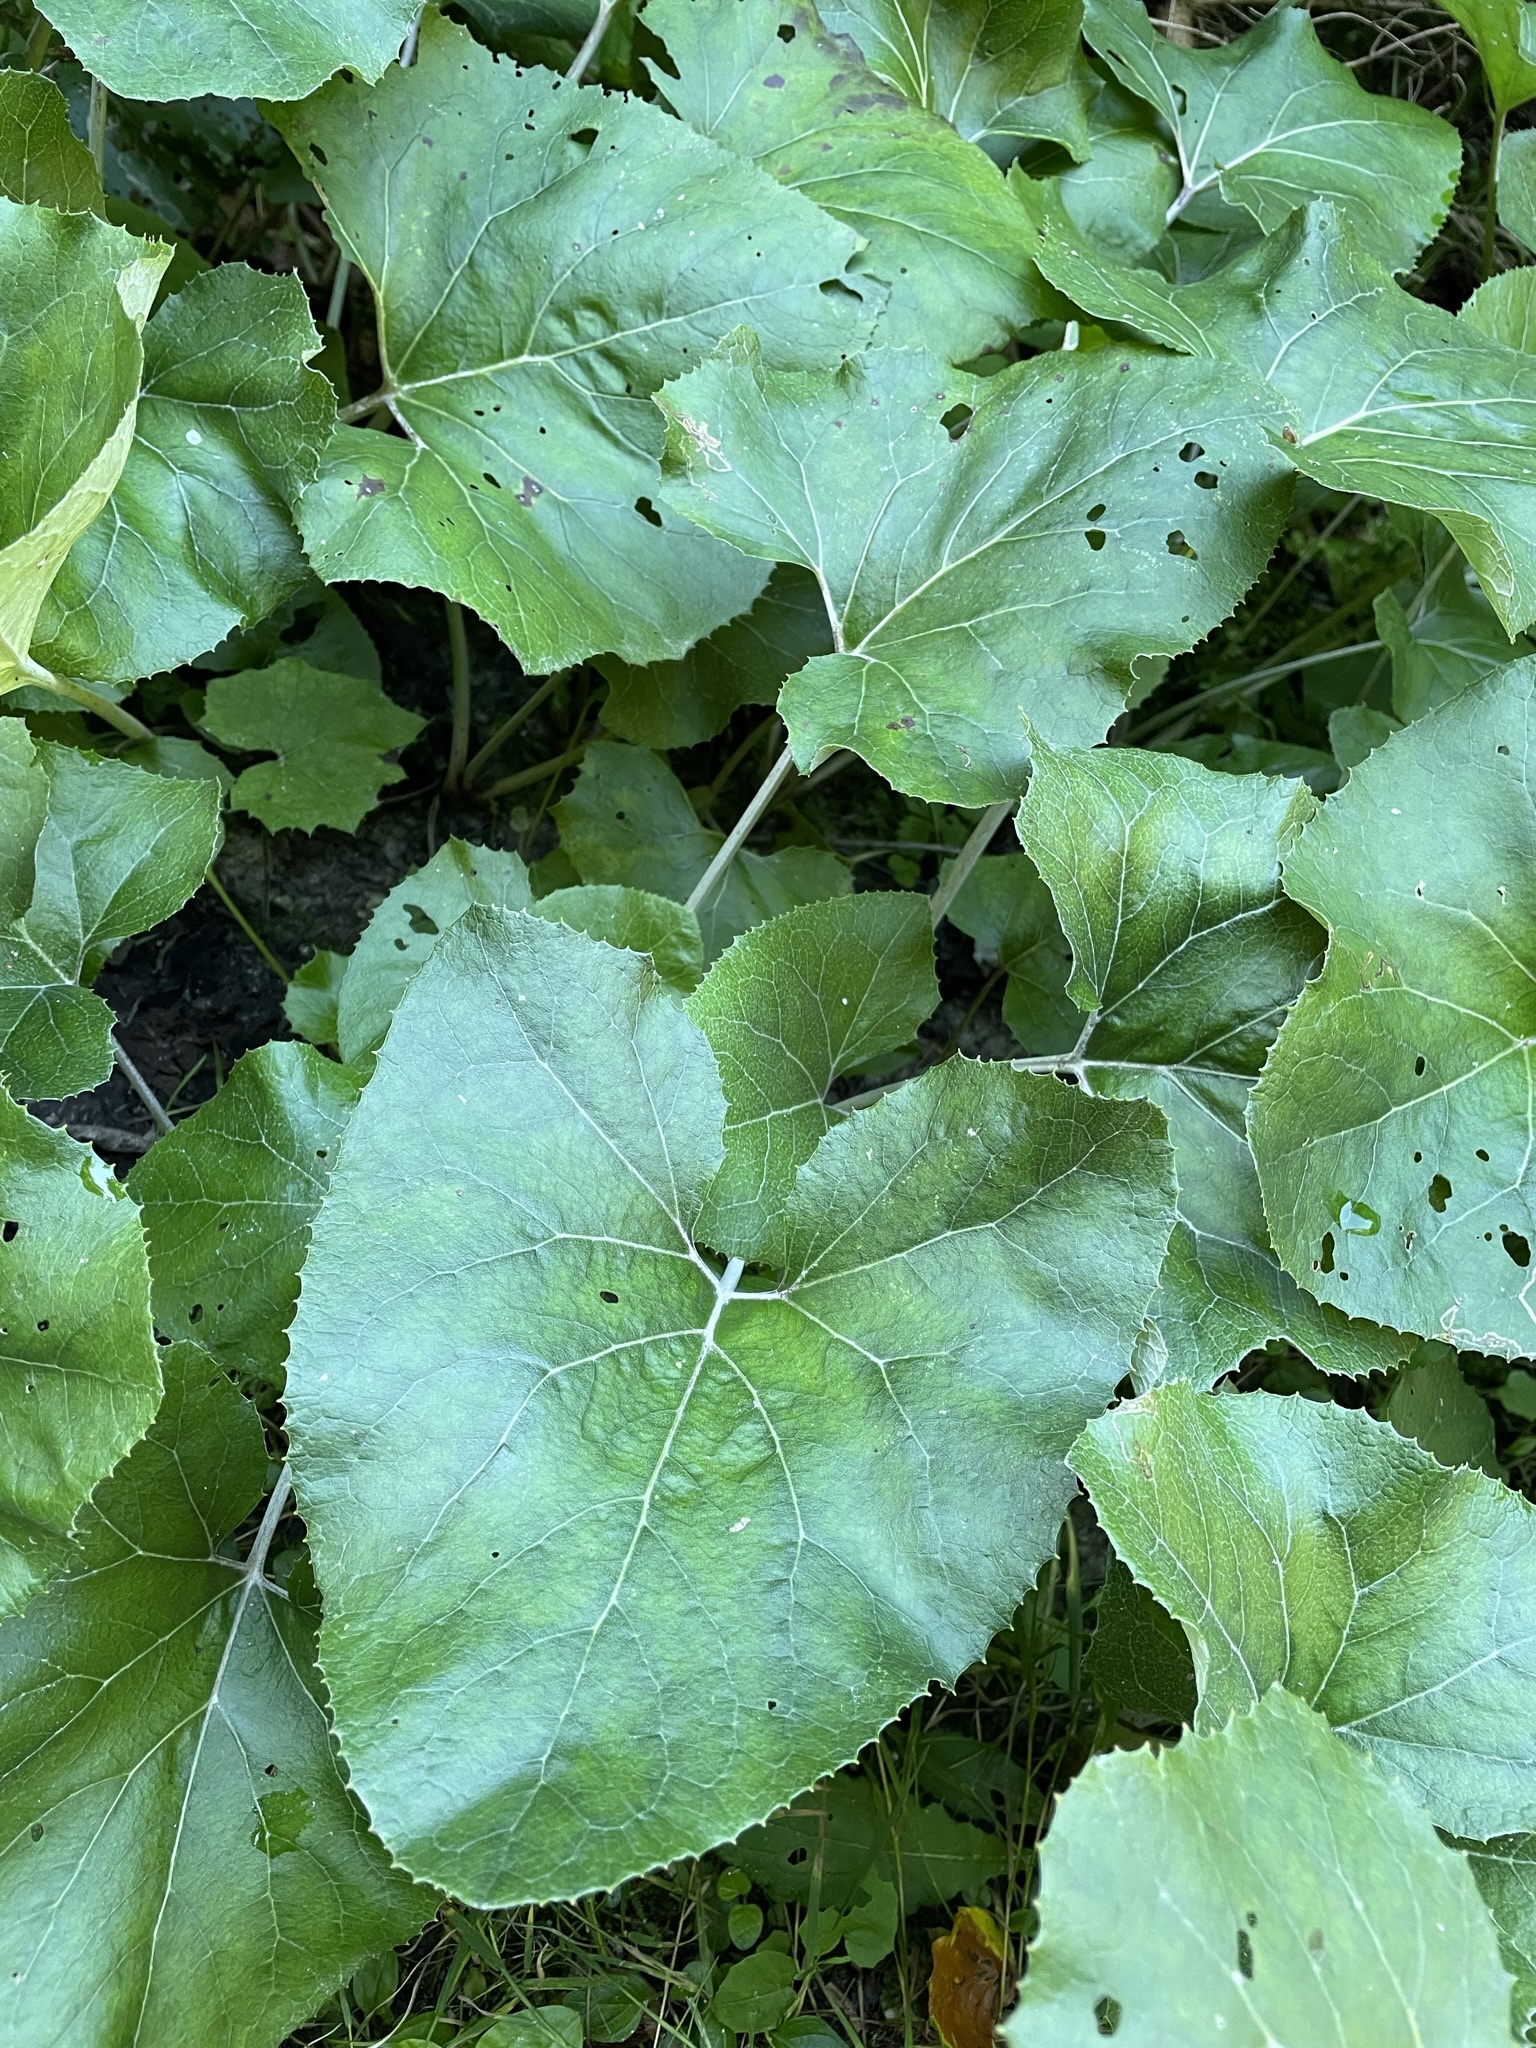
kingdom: Plantae
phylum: Tracheophyta
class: Magnoliopsida
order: Asterales
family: Asteraceae
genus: Petasites
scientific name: Petasites paradoxus
